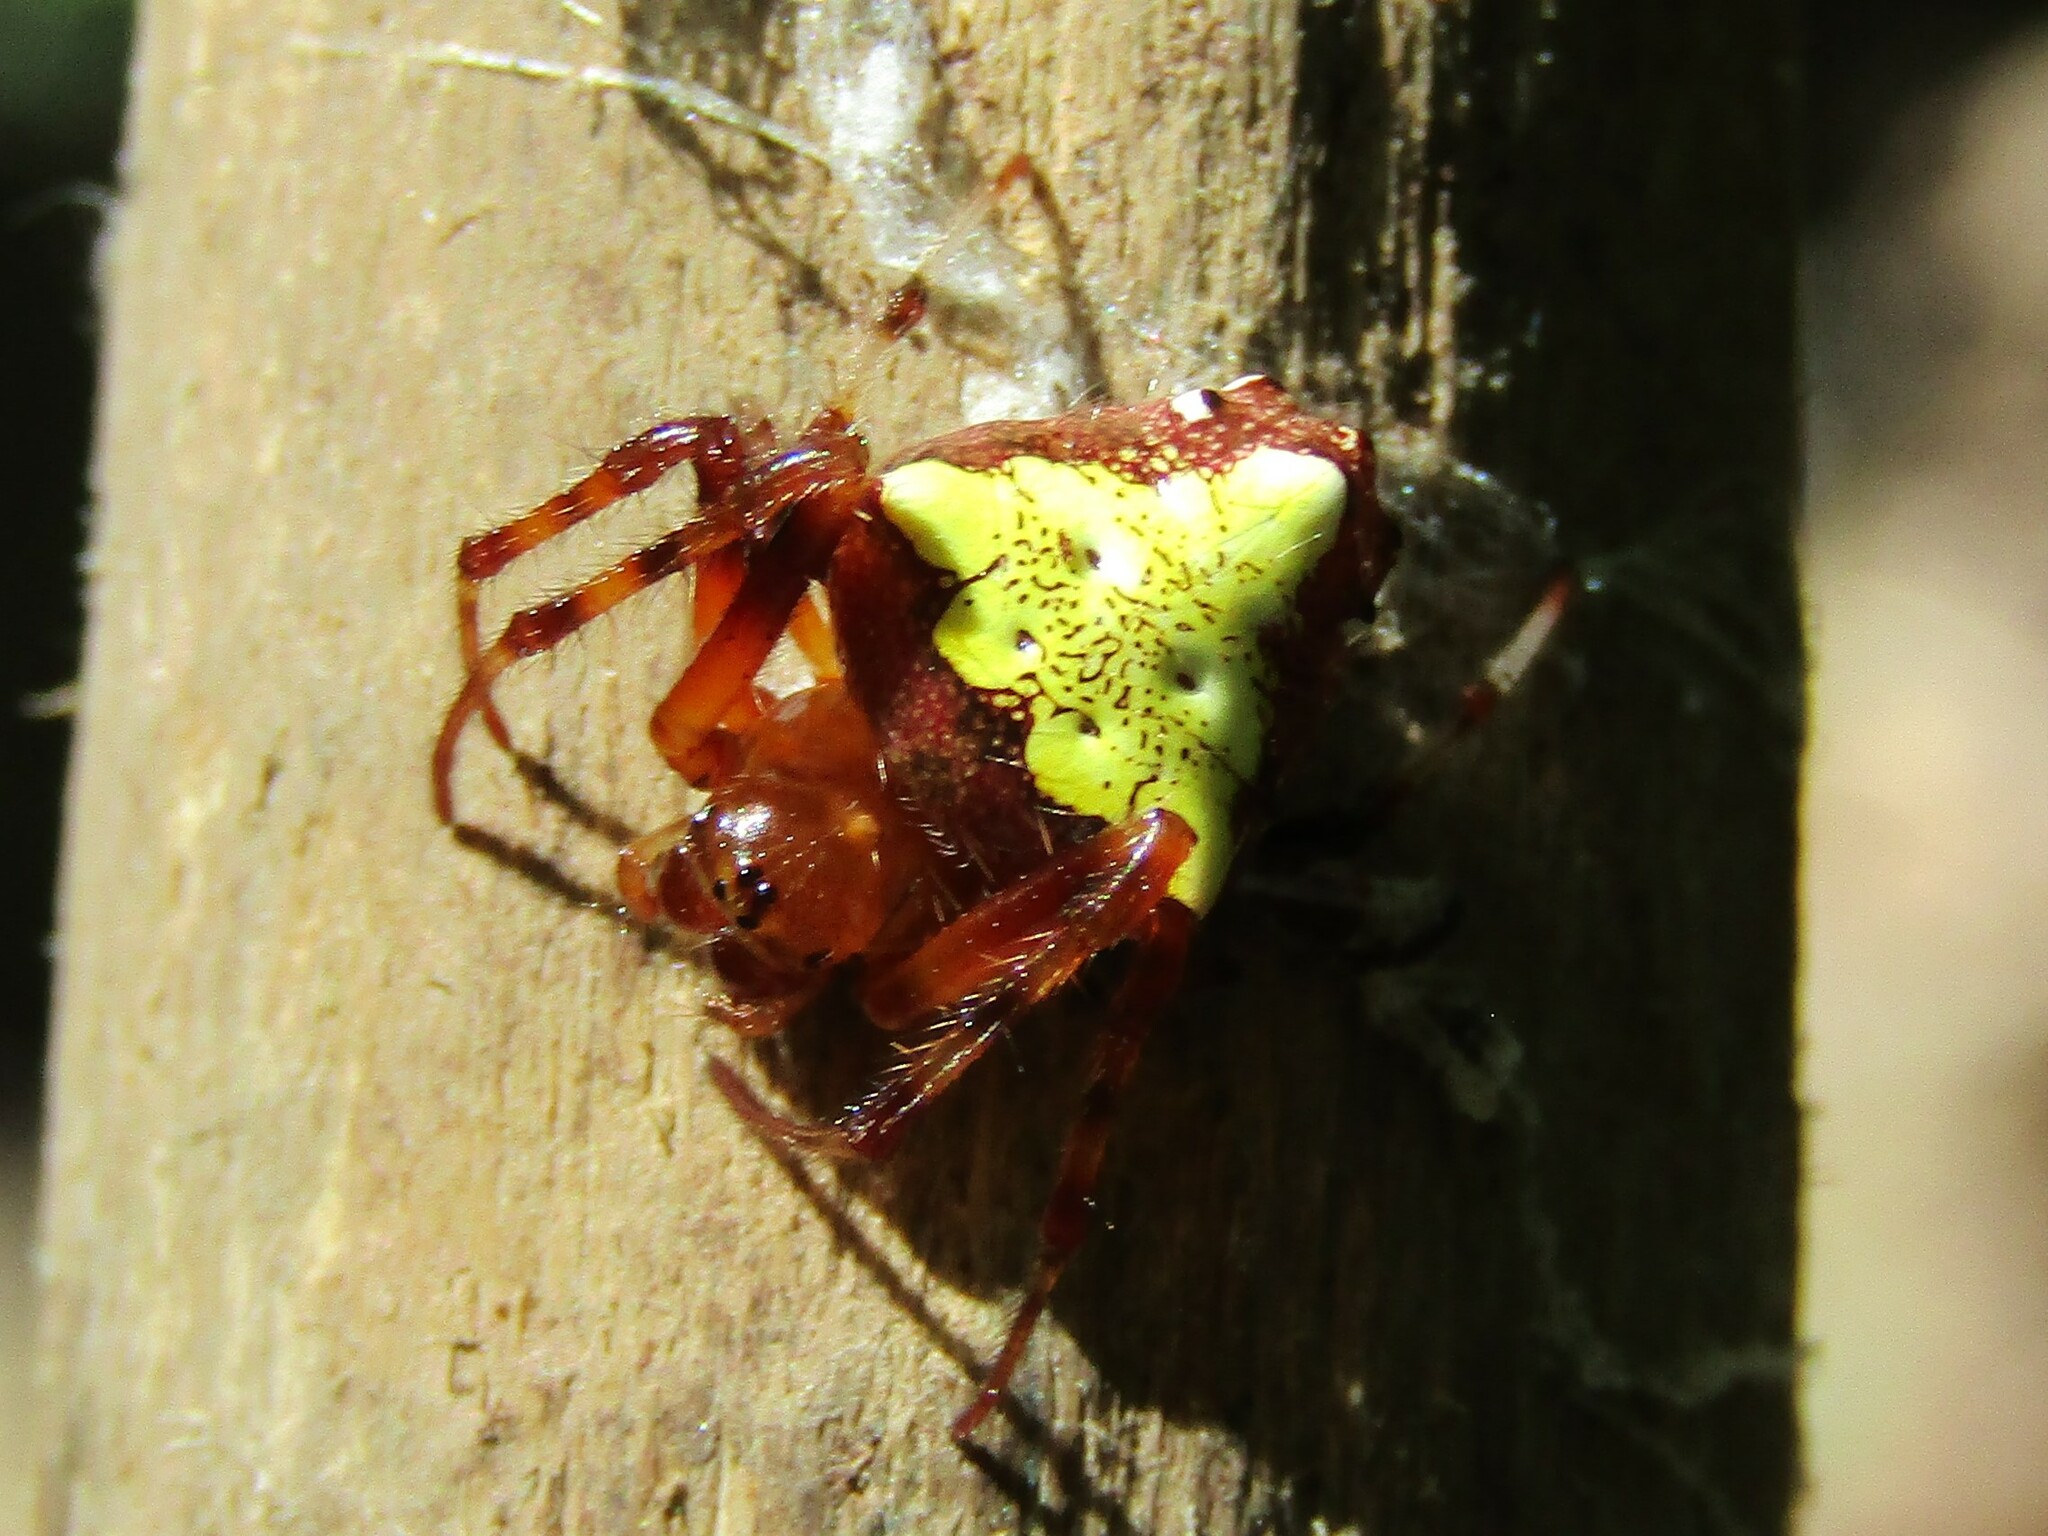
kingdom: Animalia
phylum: Arthropoda
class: Arachnida
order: Araneae
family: Araneidae
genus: Verrucosa
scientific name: Verrucosa arenata
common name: Orb weavers
